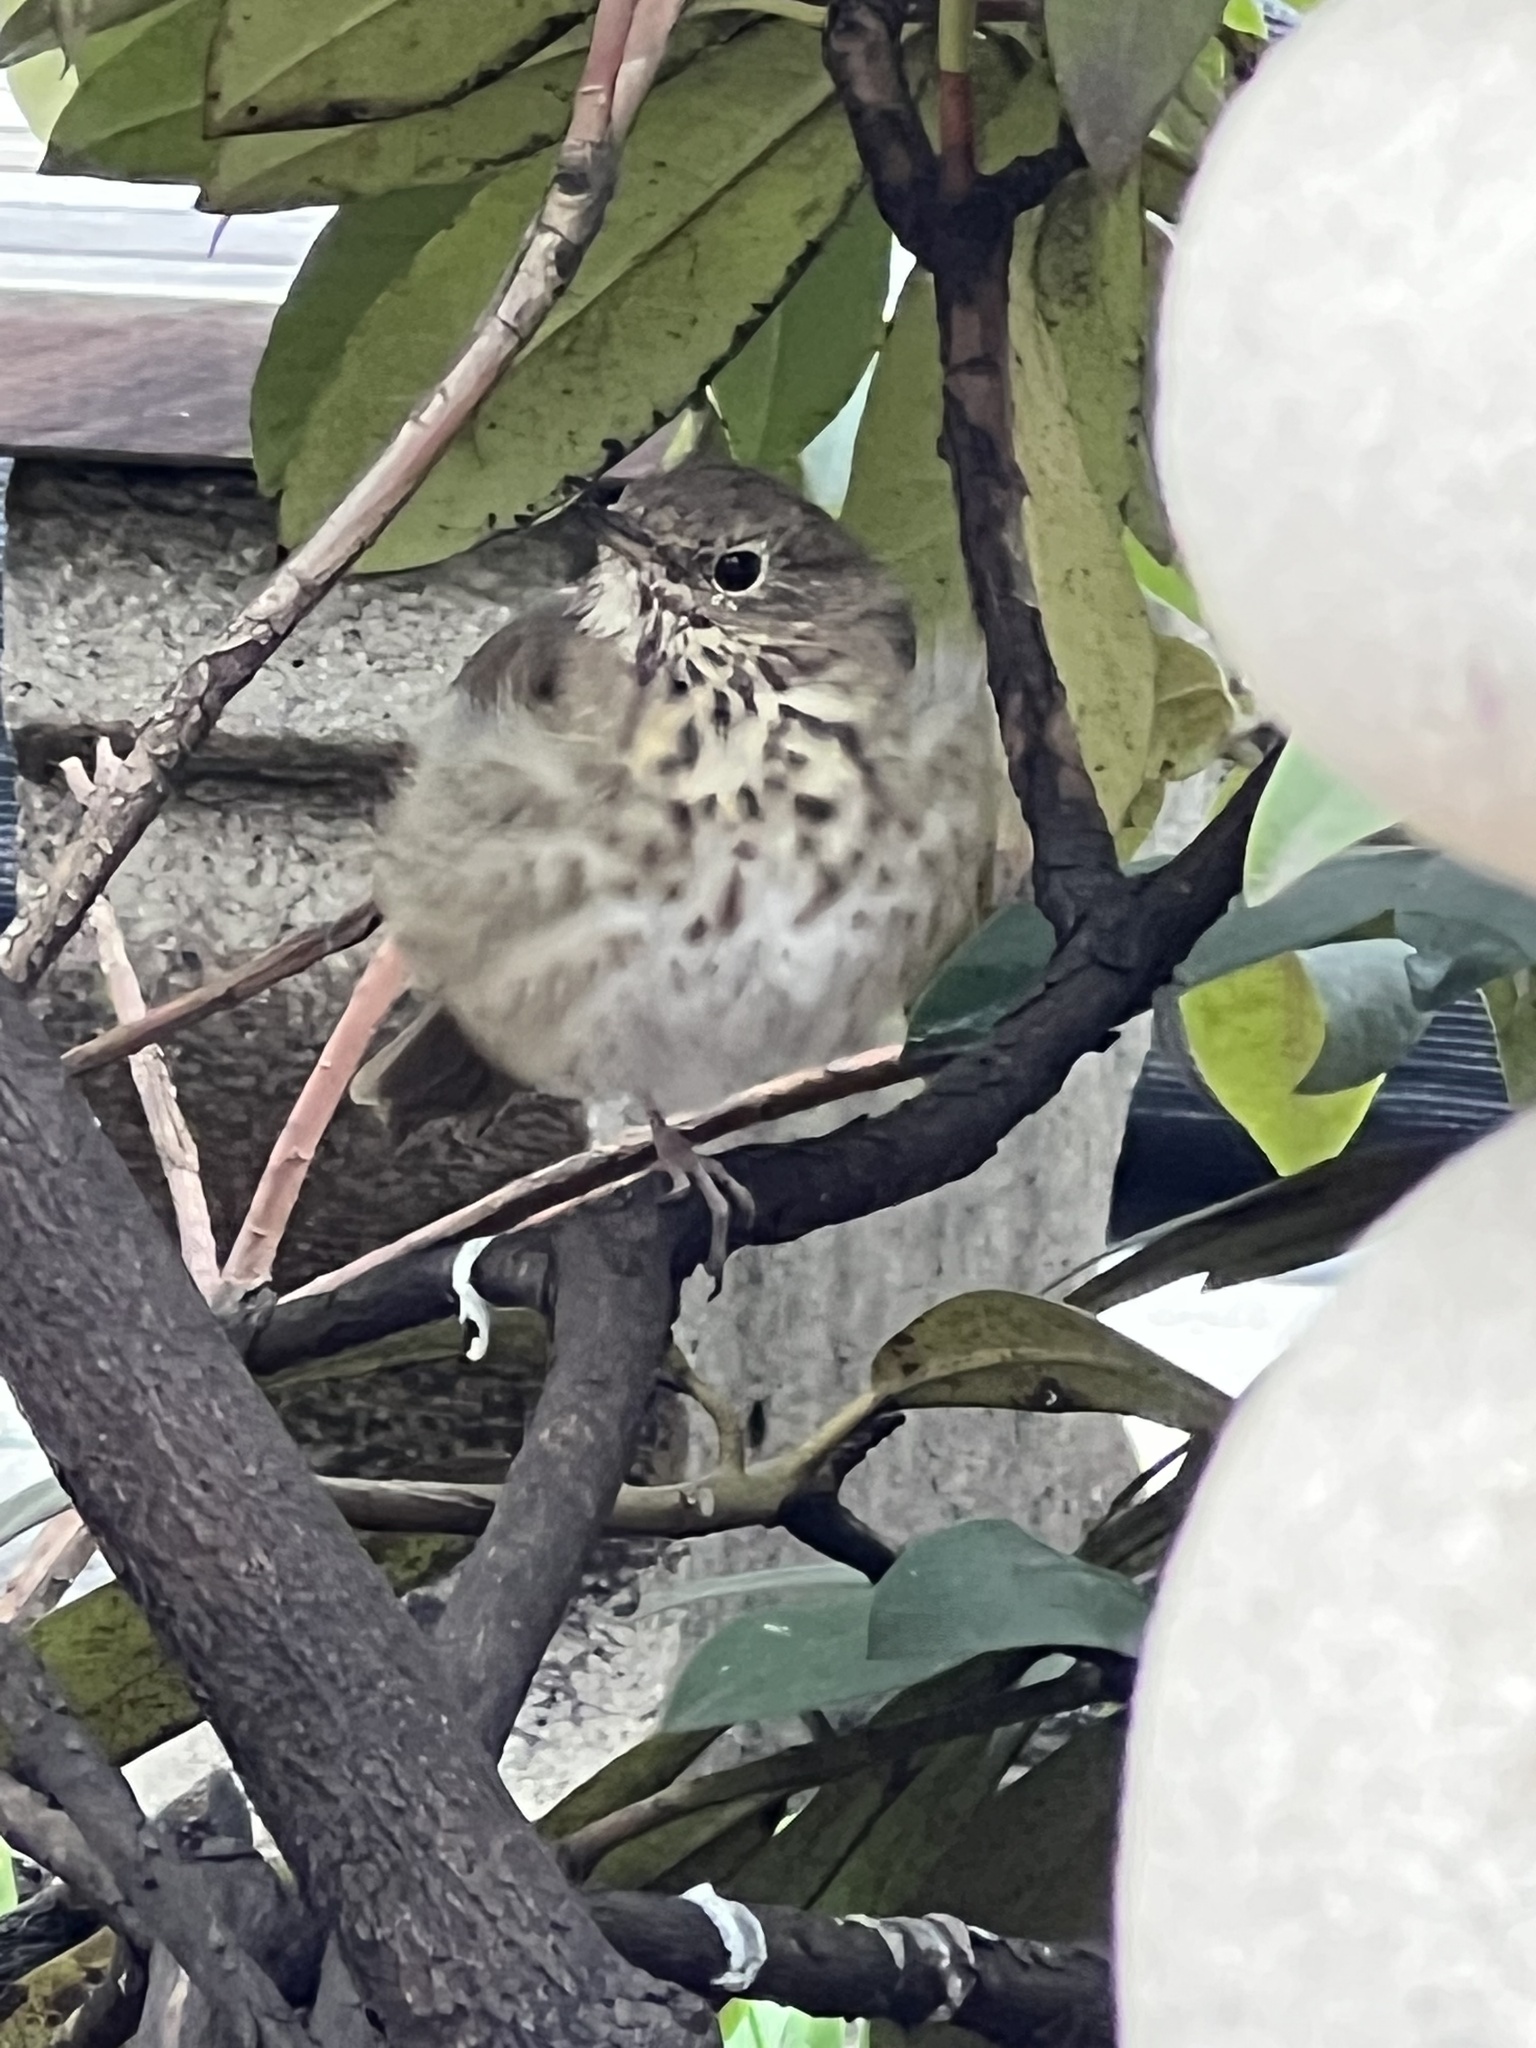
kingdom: Animalia
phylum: Chordata
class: Aves
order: Passeriformes
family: Turdidae
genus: Catharus
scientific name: Catharus guttatus
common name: Hermit thrush
